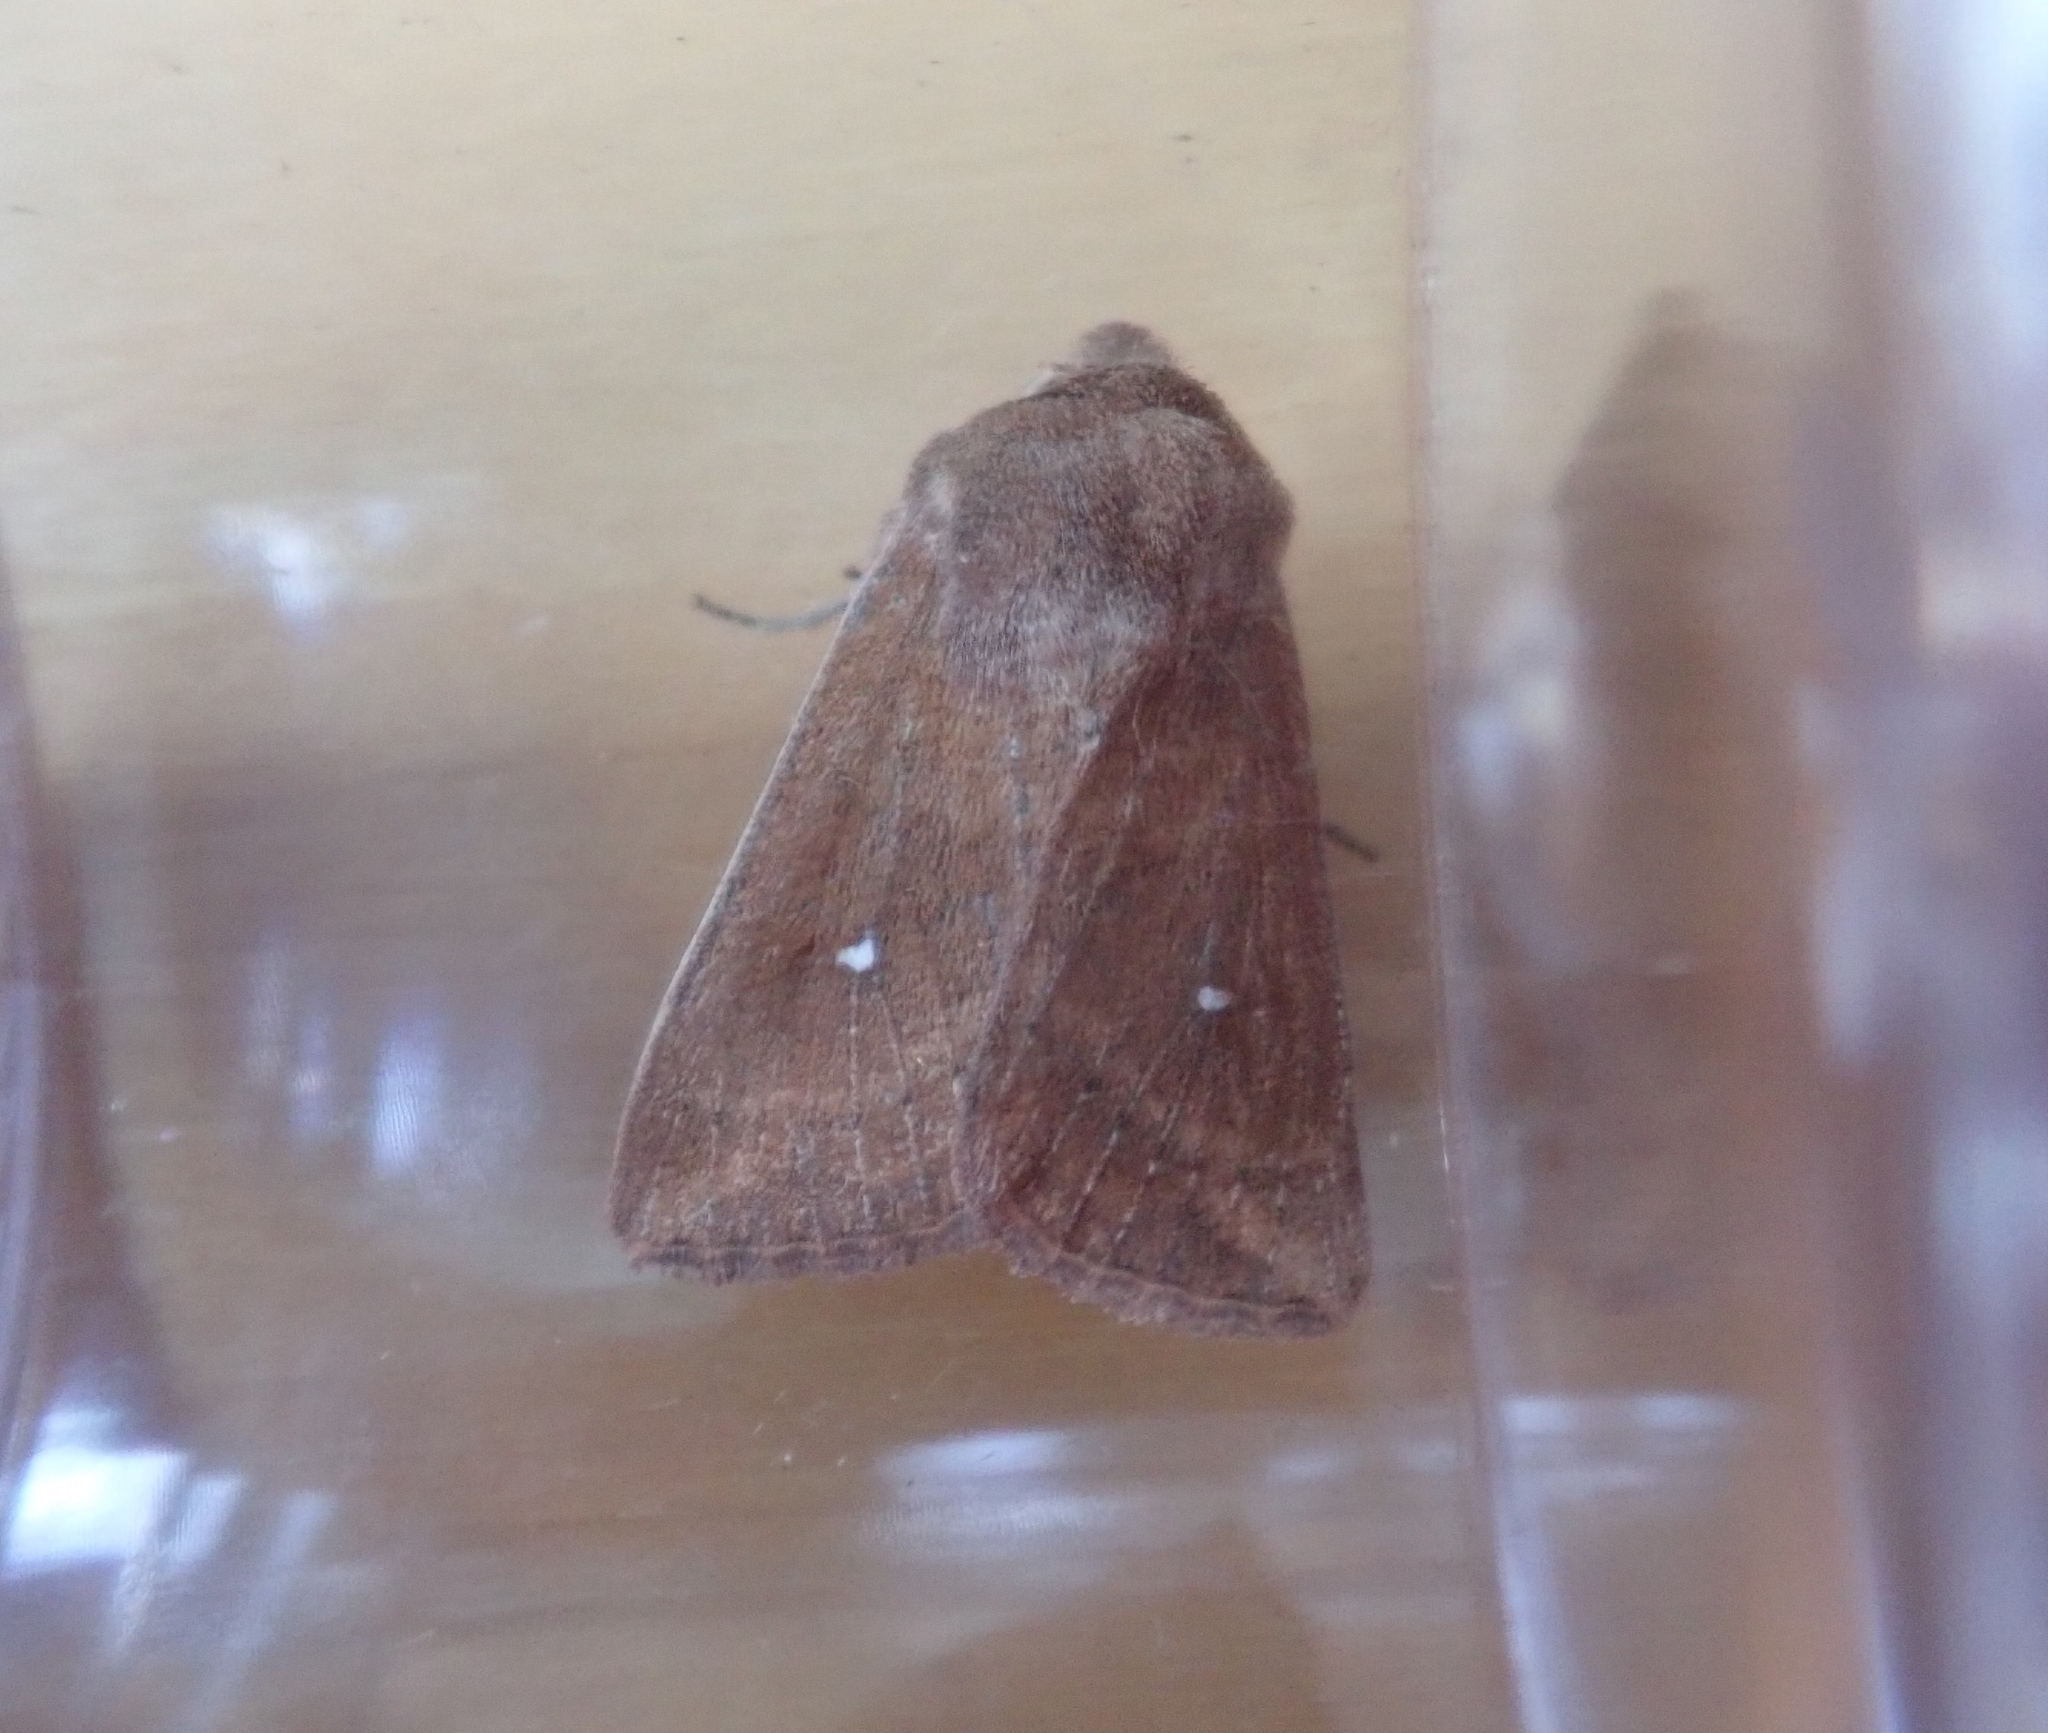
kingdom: Animalia
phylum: Arthropoda
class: Insecta
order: Lepidoptera
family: Noctuidae
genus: Mythimna
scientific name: Mythimna albipuncta
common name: White-point
